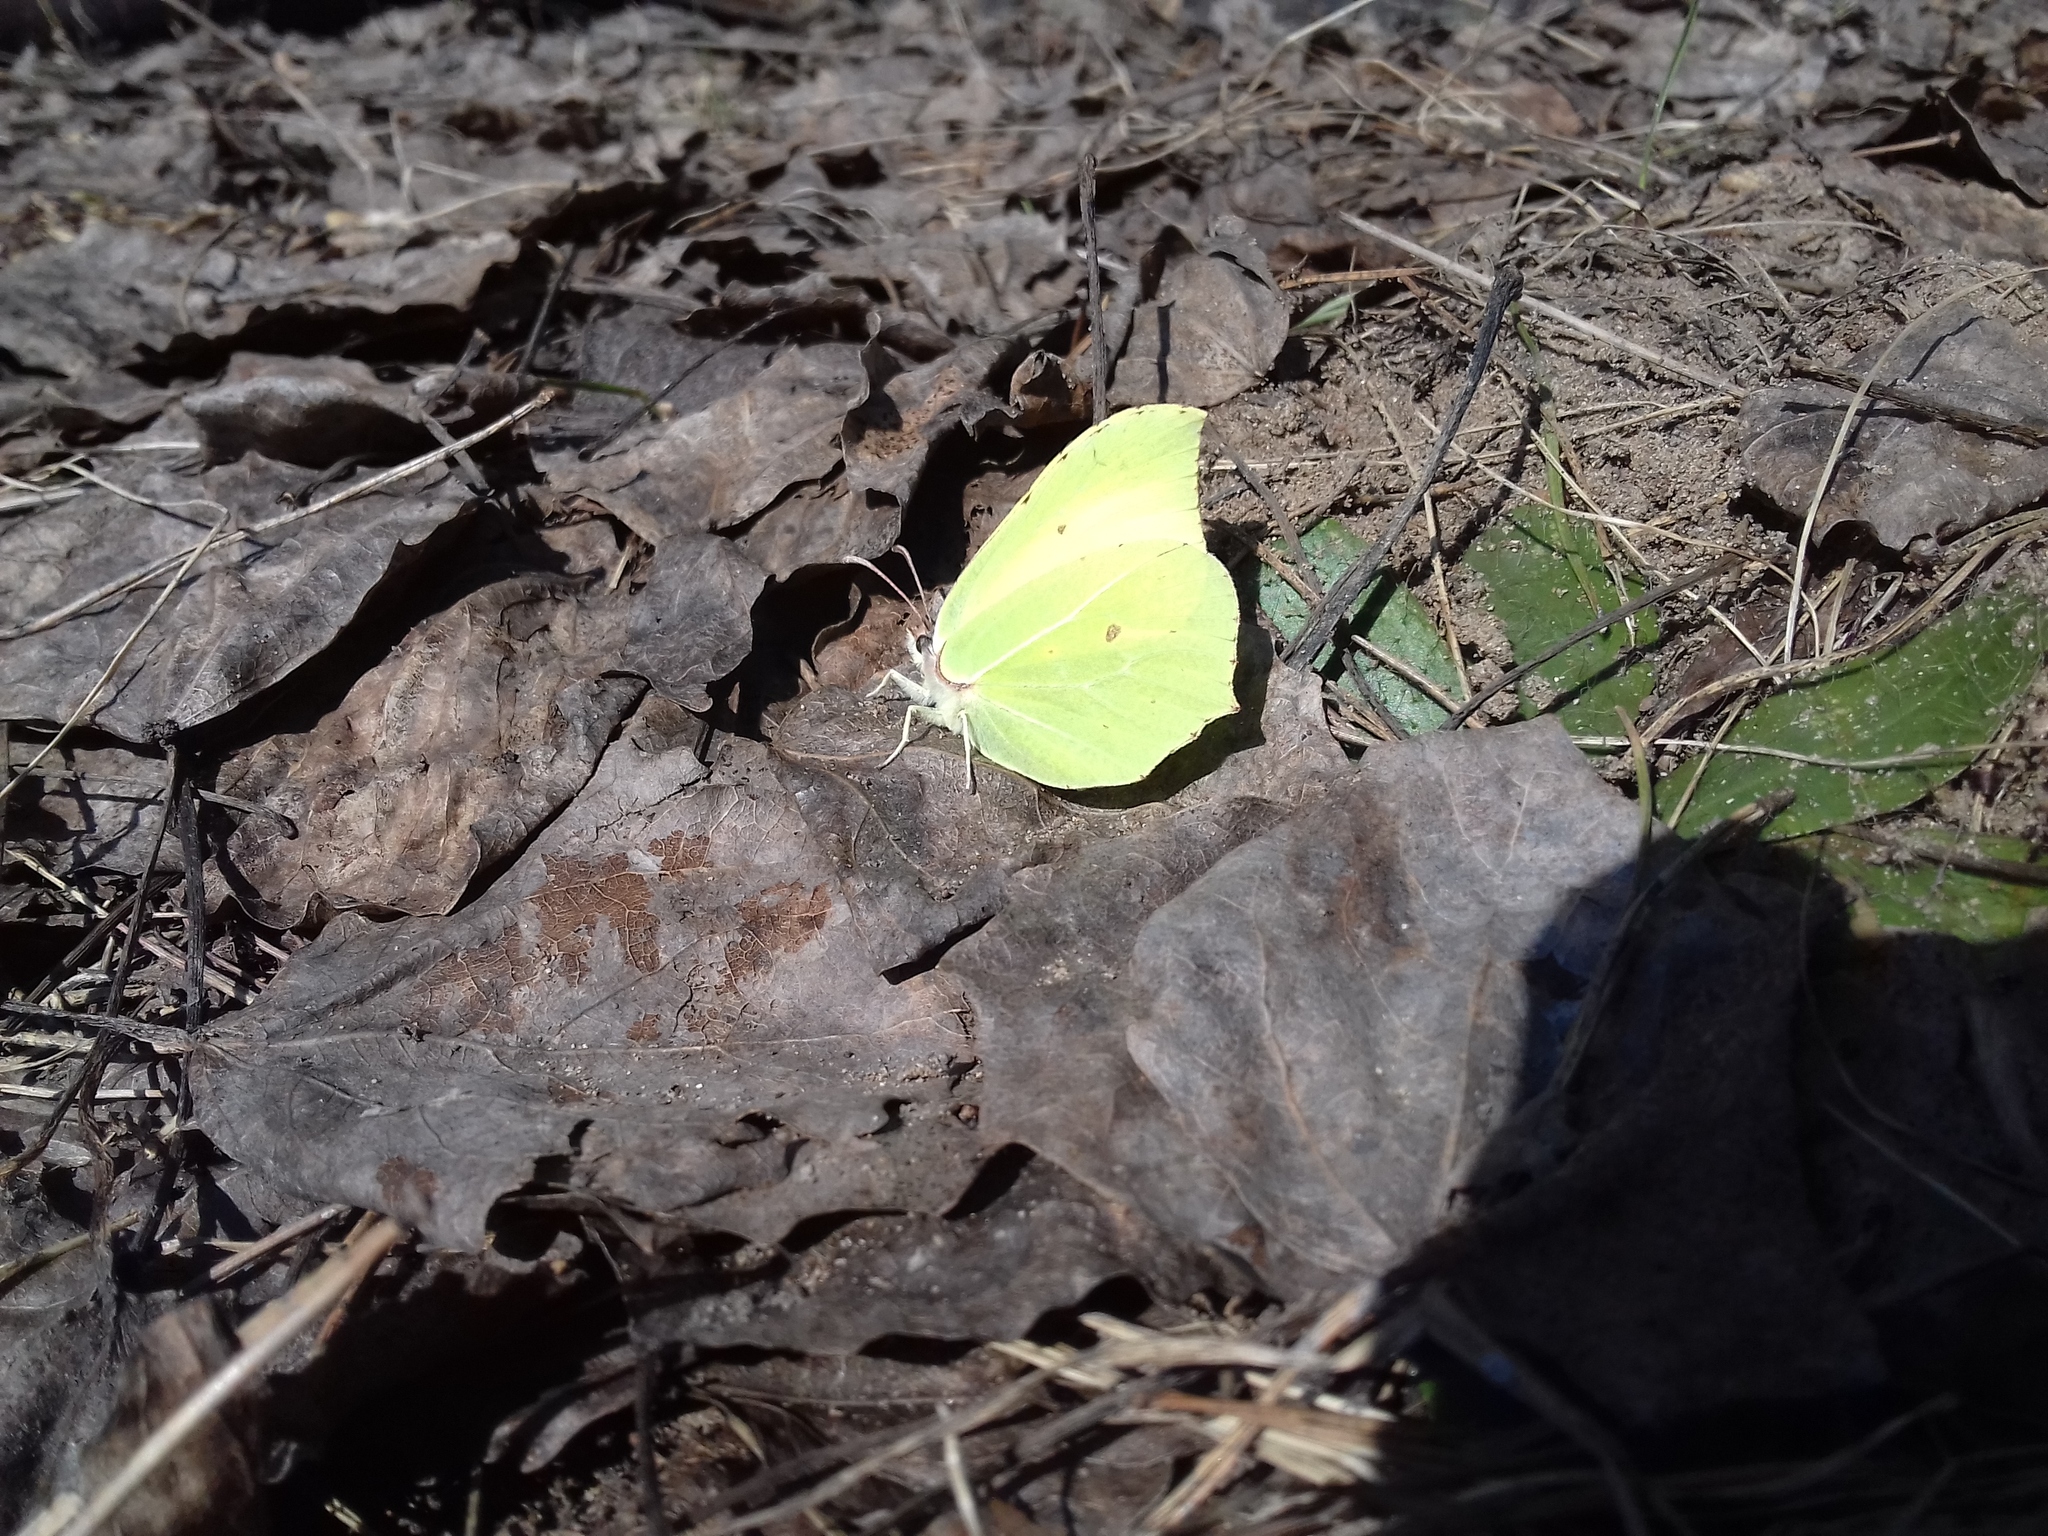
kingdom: Animalia
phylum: Arthropoda
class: Insecta
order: Lepidoptera
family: Pieridae
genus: Gonepteryx
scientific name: Gonepteryx rhamni
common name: Brimstone
